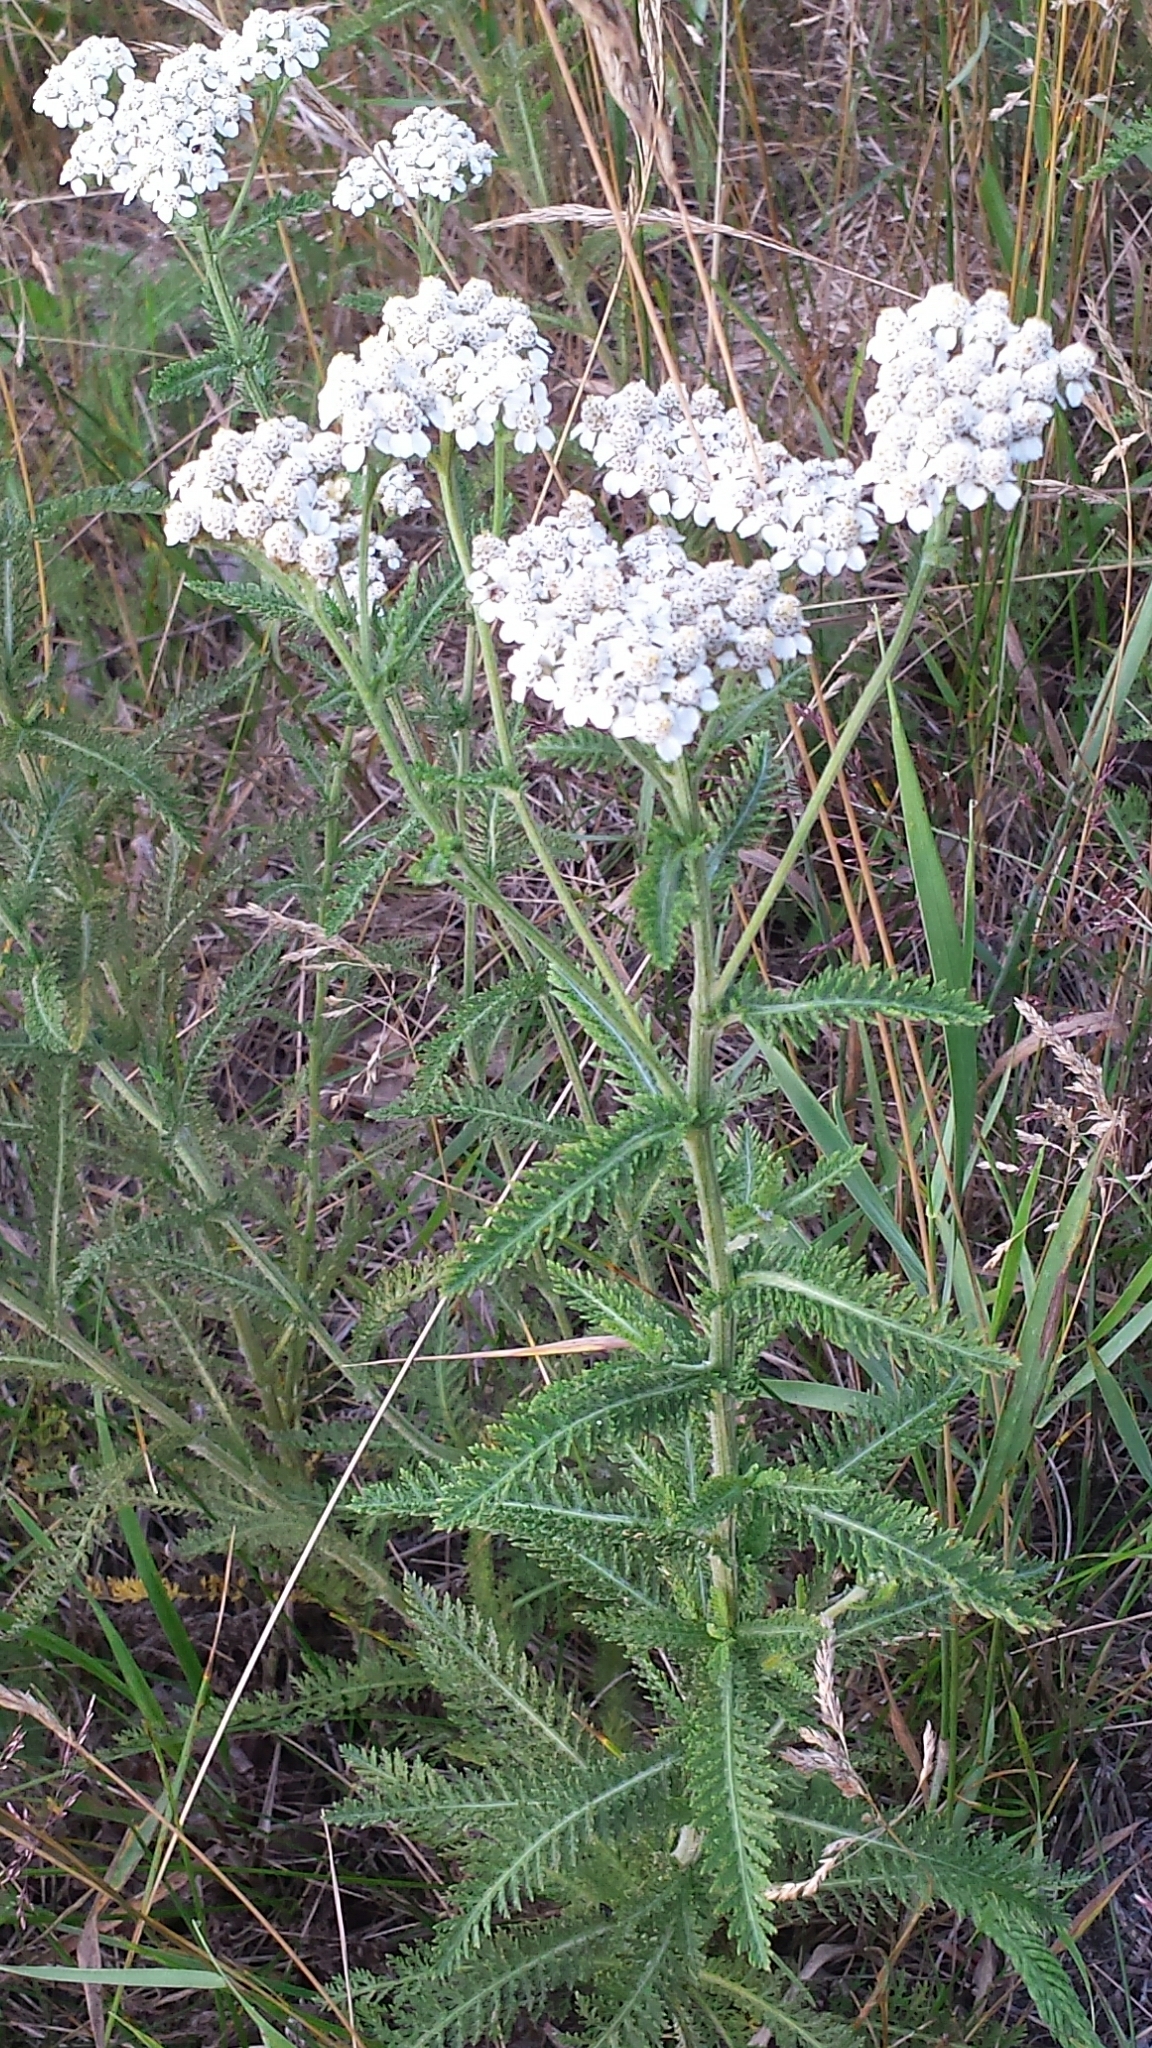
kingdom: Plantae
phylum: Tracheophyta
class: Magnoliopsida
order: Asterales
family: Asteraceae
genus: Achillea
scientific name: Achillea millefolium
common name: Yarrow
